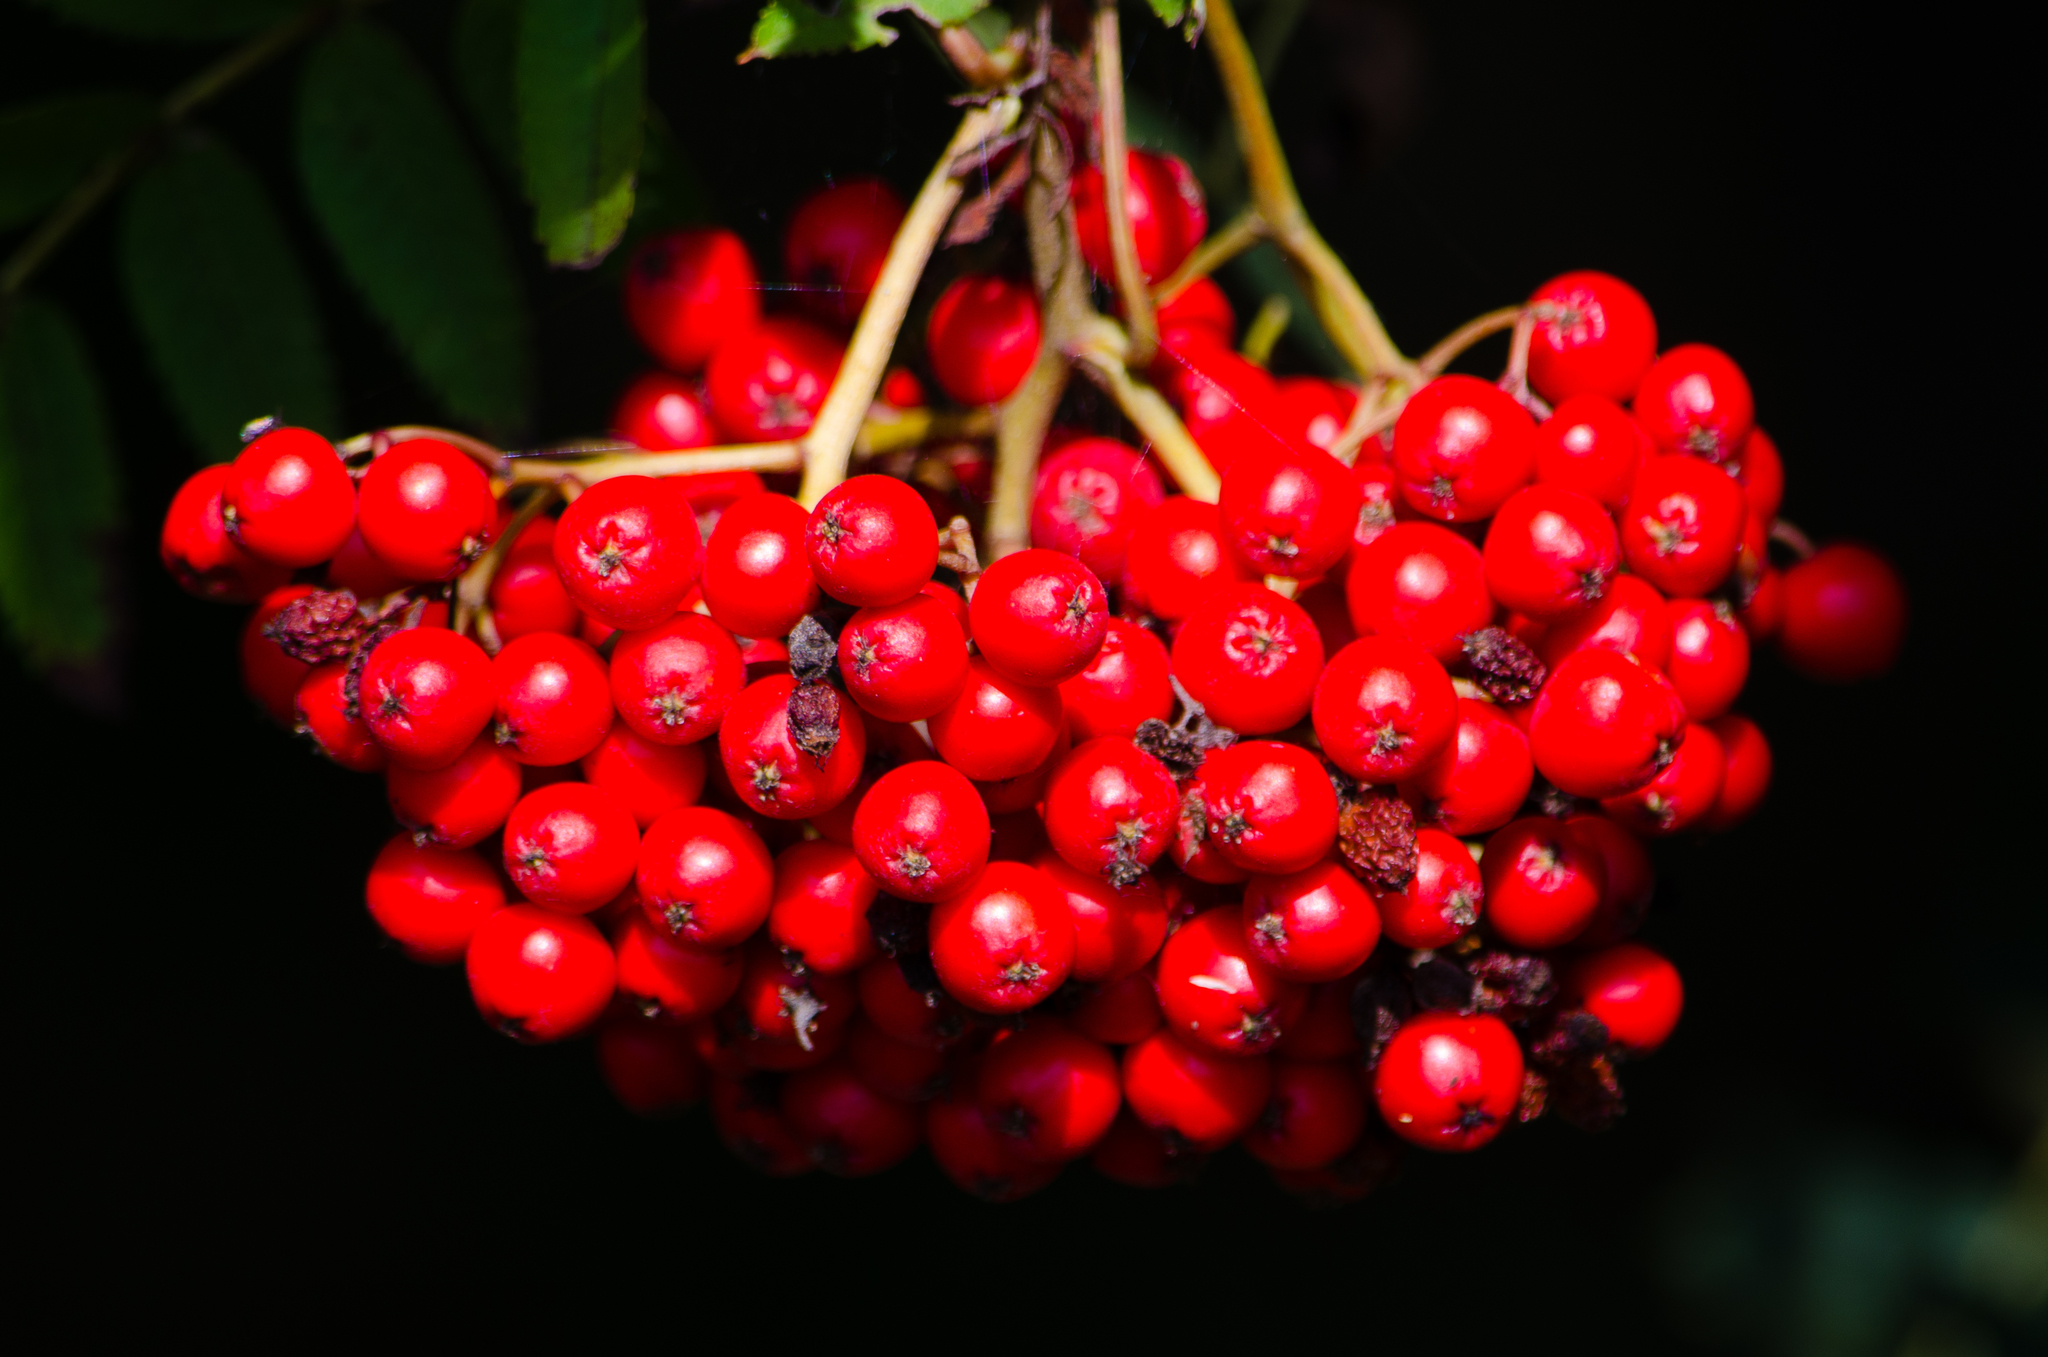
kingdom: Plantae
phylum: Tracheophyta
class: Magnoliopsida
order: Rosales
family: Rosaceae
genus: Sorbus
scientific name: Sorbus aucuparia
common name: Rowan
